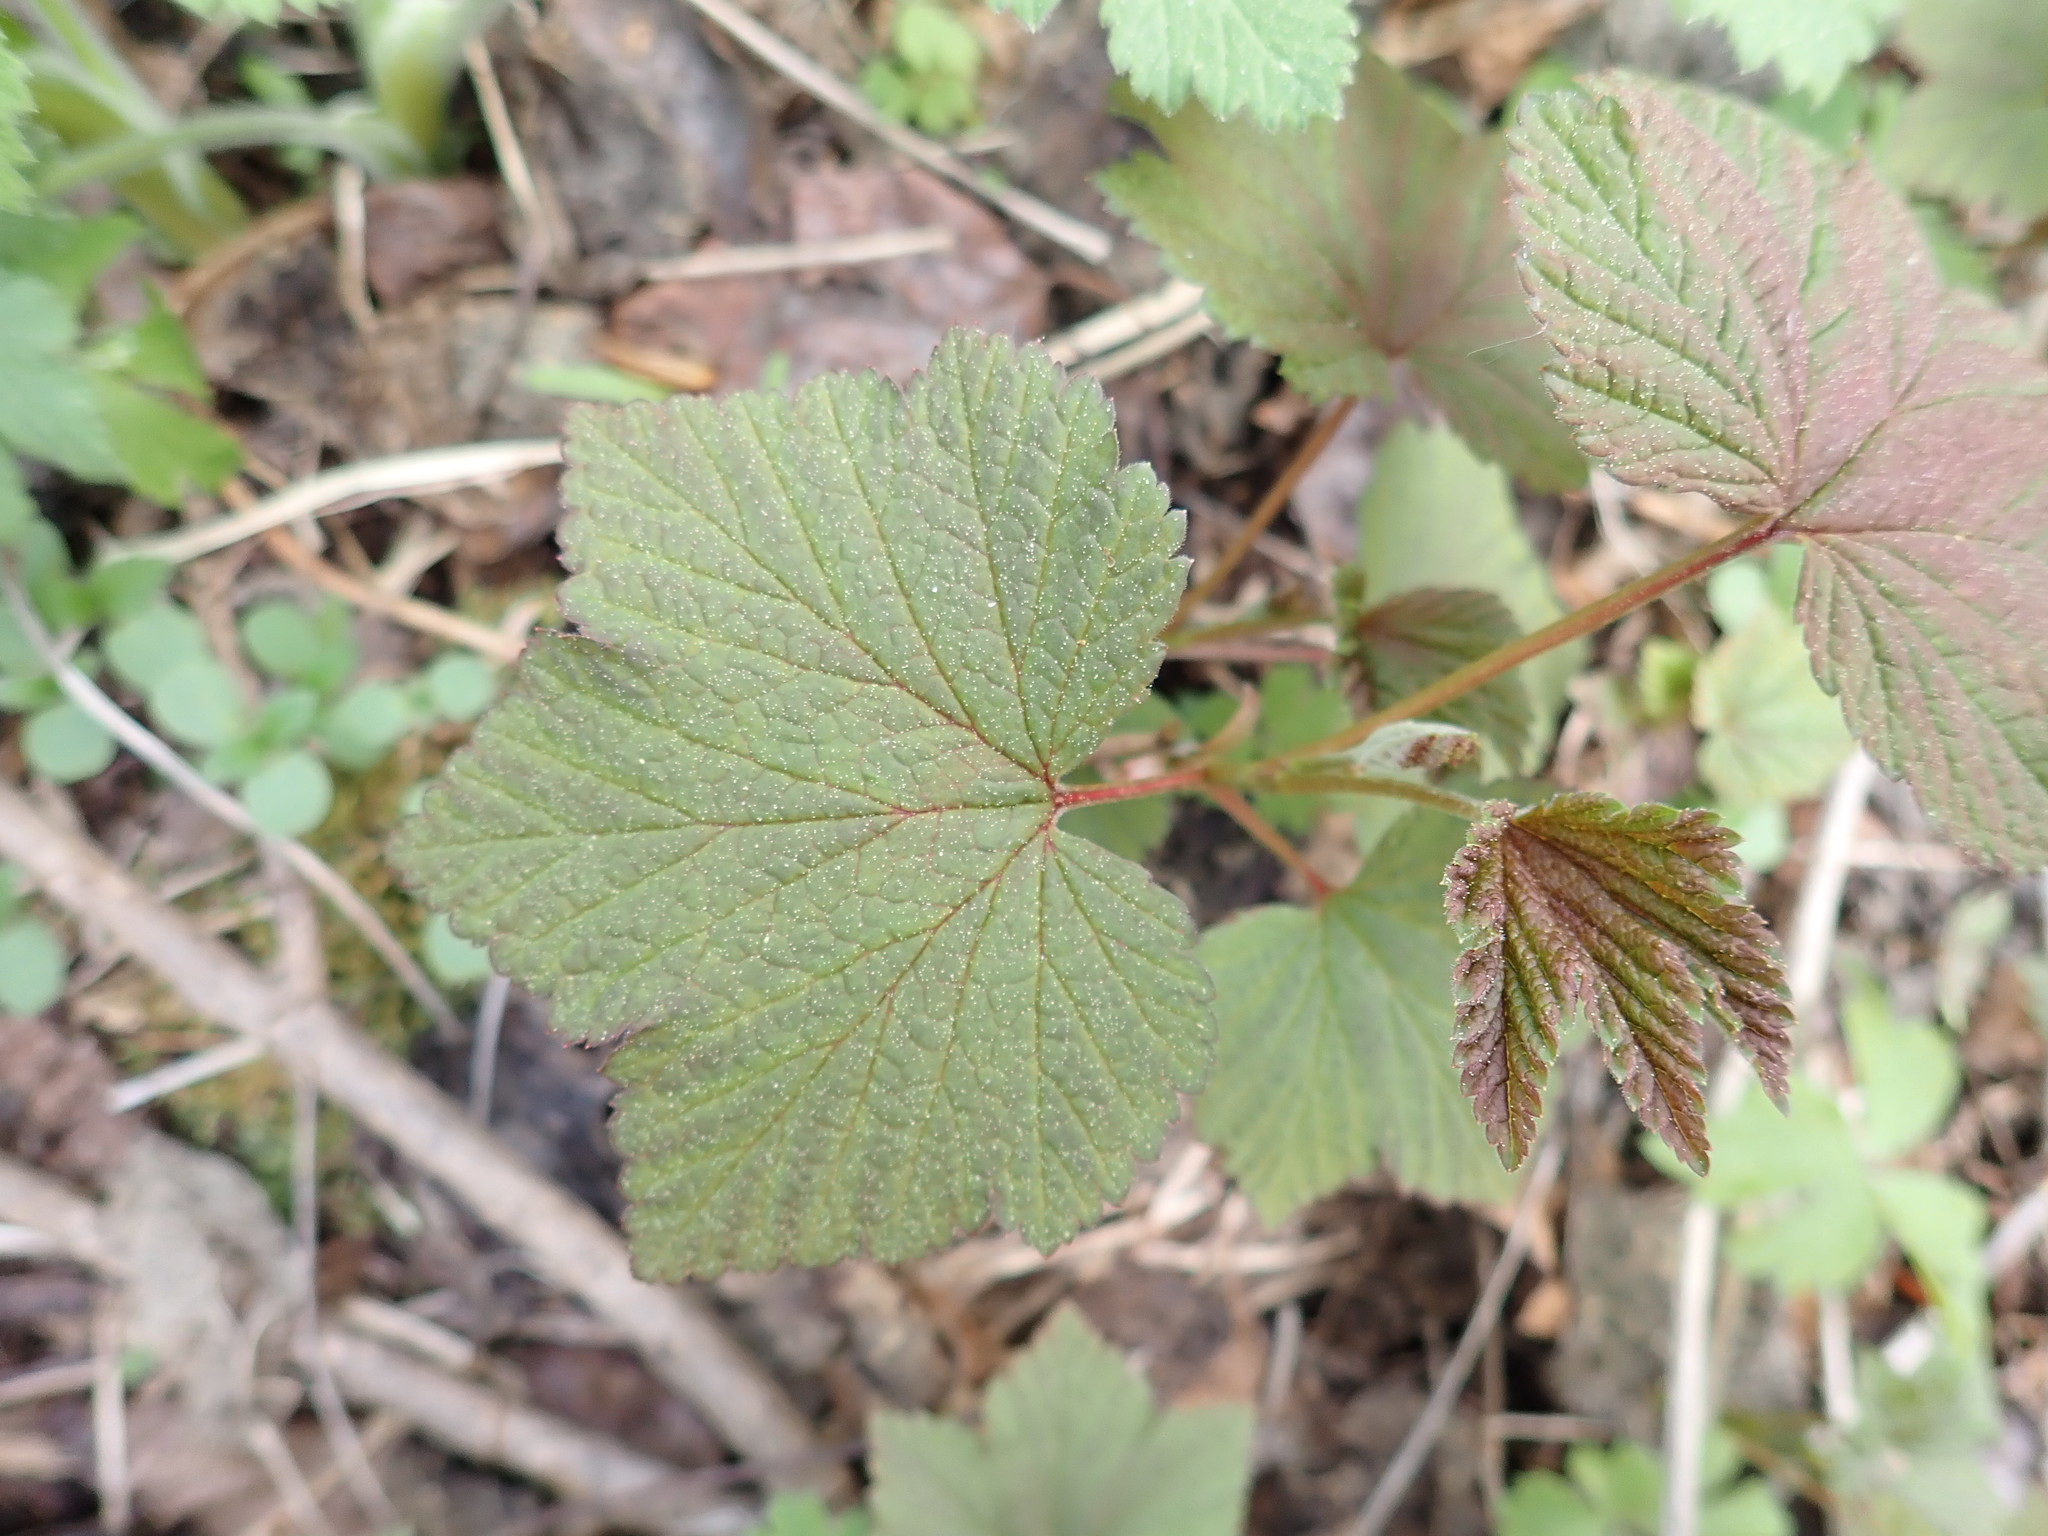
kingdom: Plantae
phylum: Tracheophyta
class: Magnoliopsida
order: Saxifragales
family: Grossulariaceae
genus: Ribes
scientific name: Ribes triste
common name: Swamp red currant
